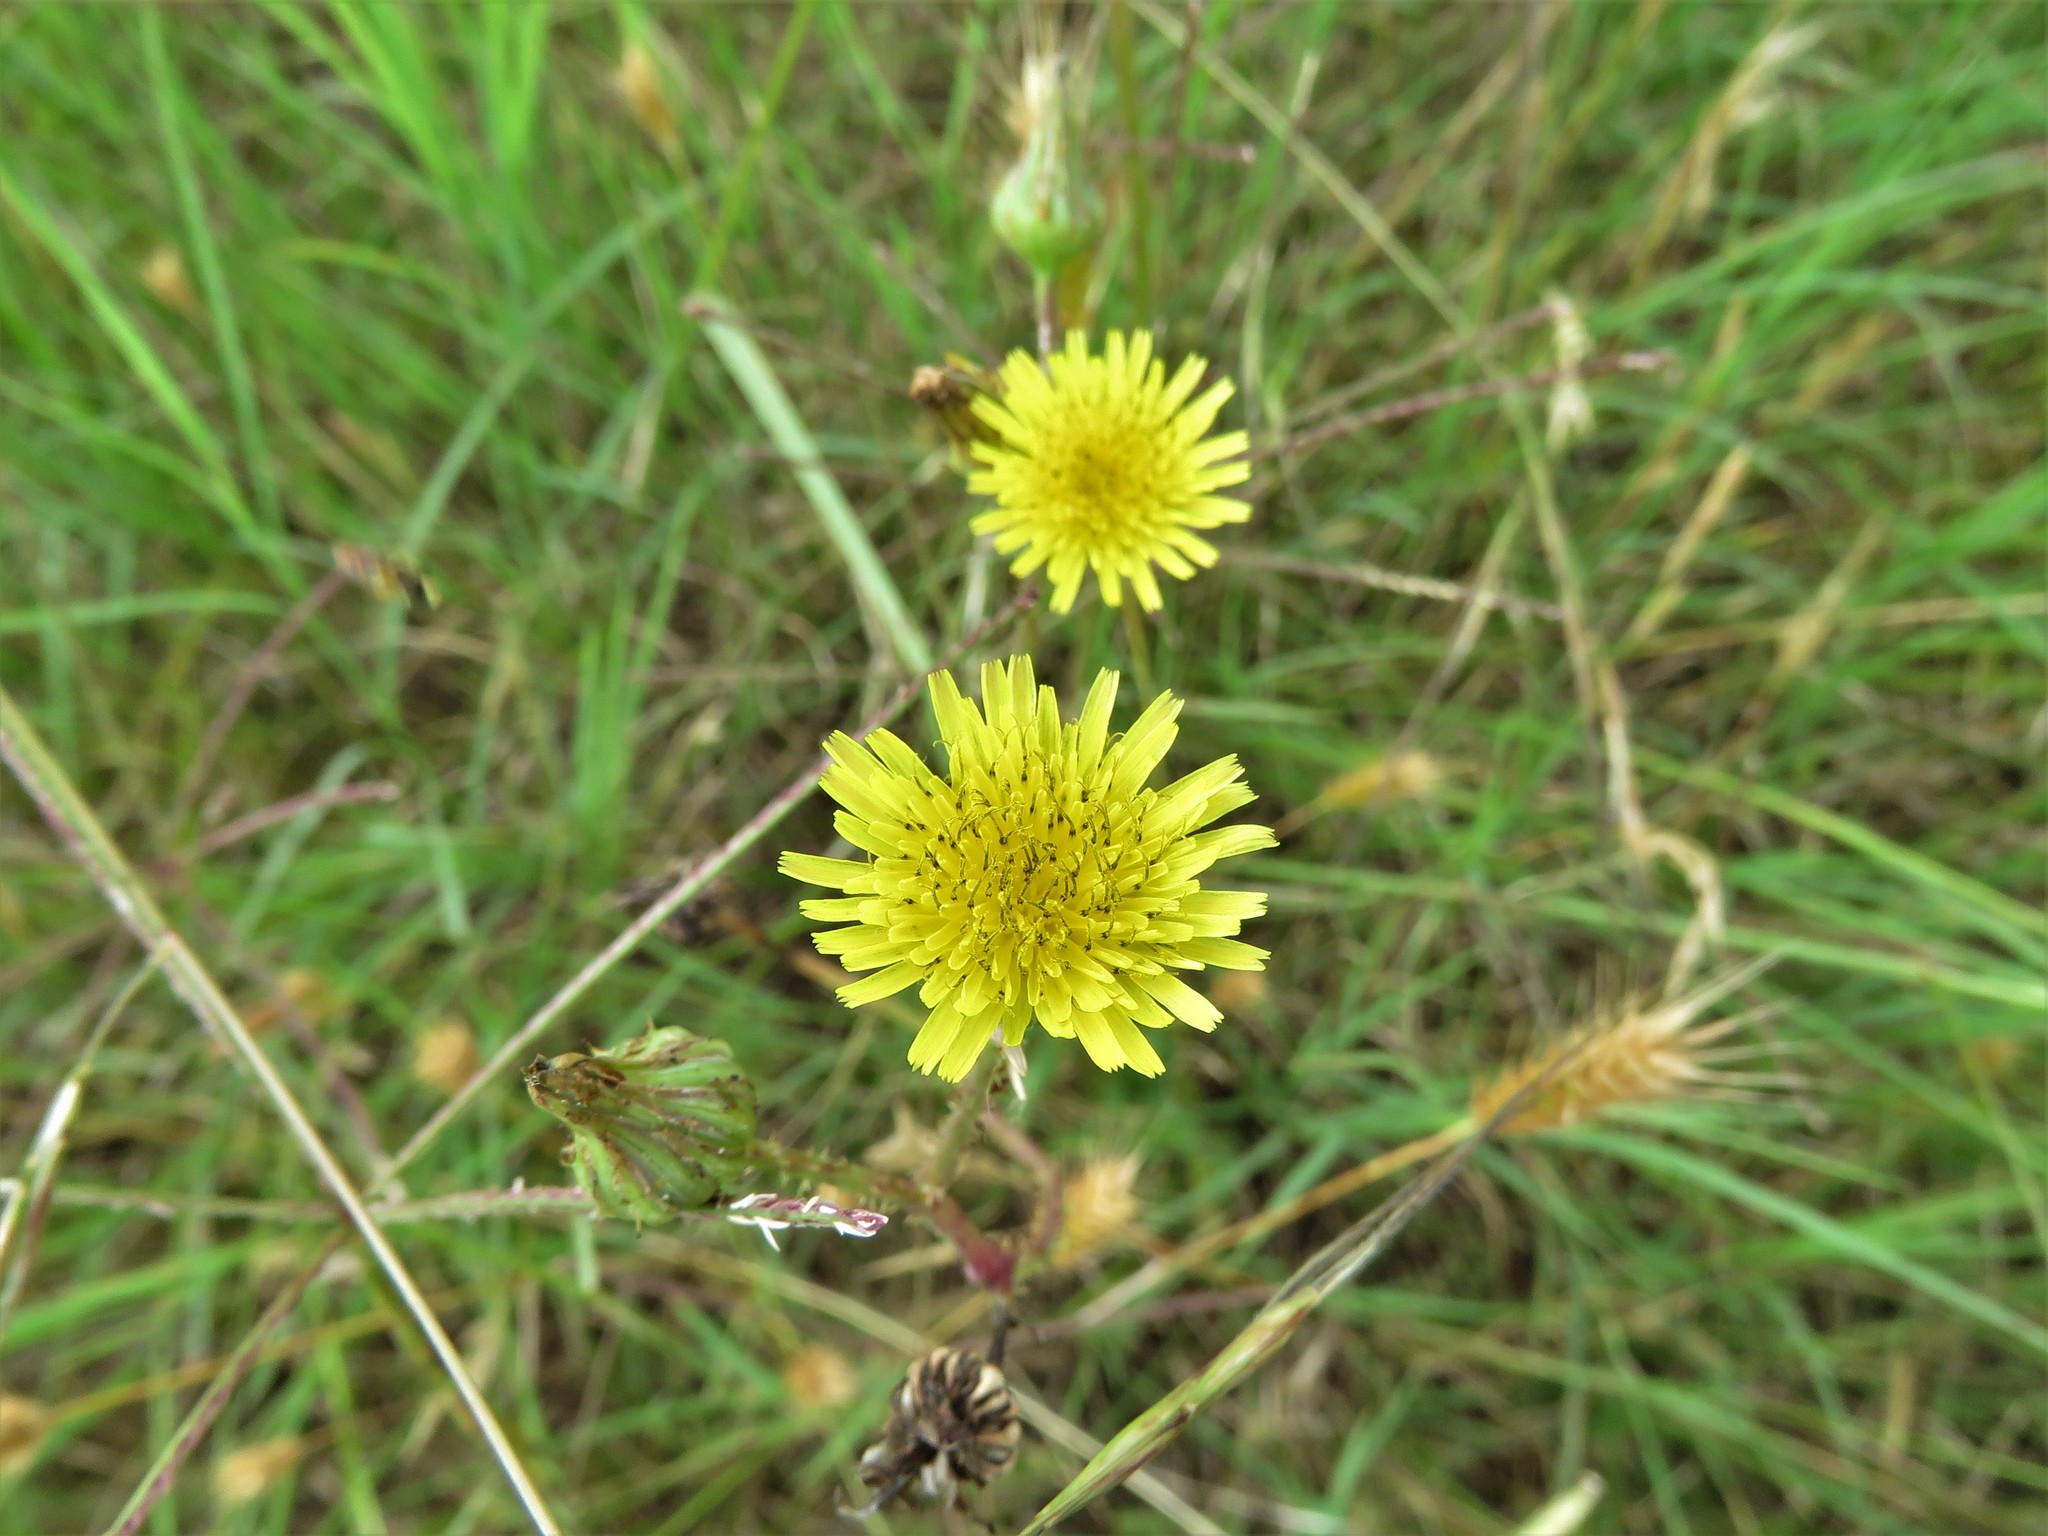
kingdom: Plantae
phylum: Tracheophyta
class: Magnoliopsida
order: Asterales
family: Asteraceae
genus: Sonchus
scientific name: Sonchus asper
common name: Prickly sow-thistle
